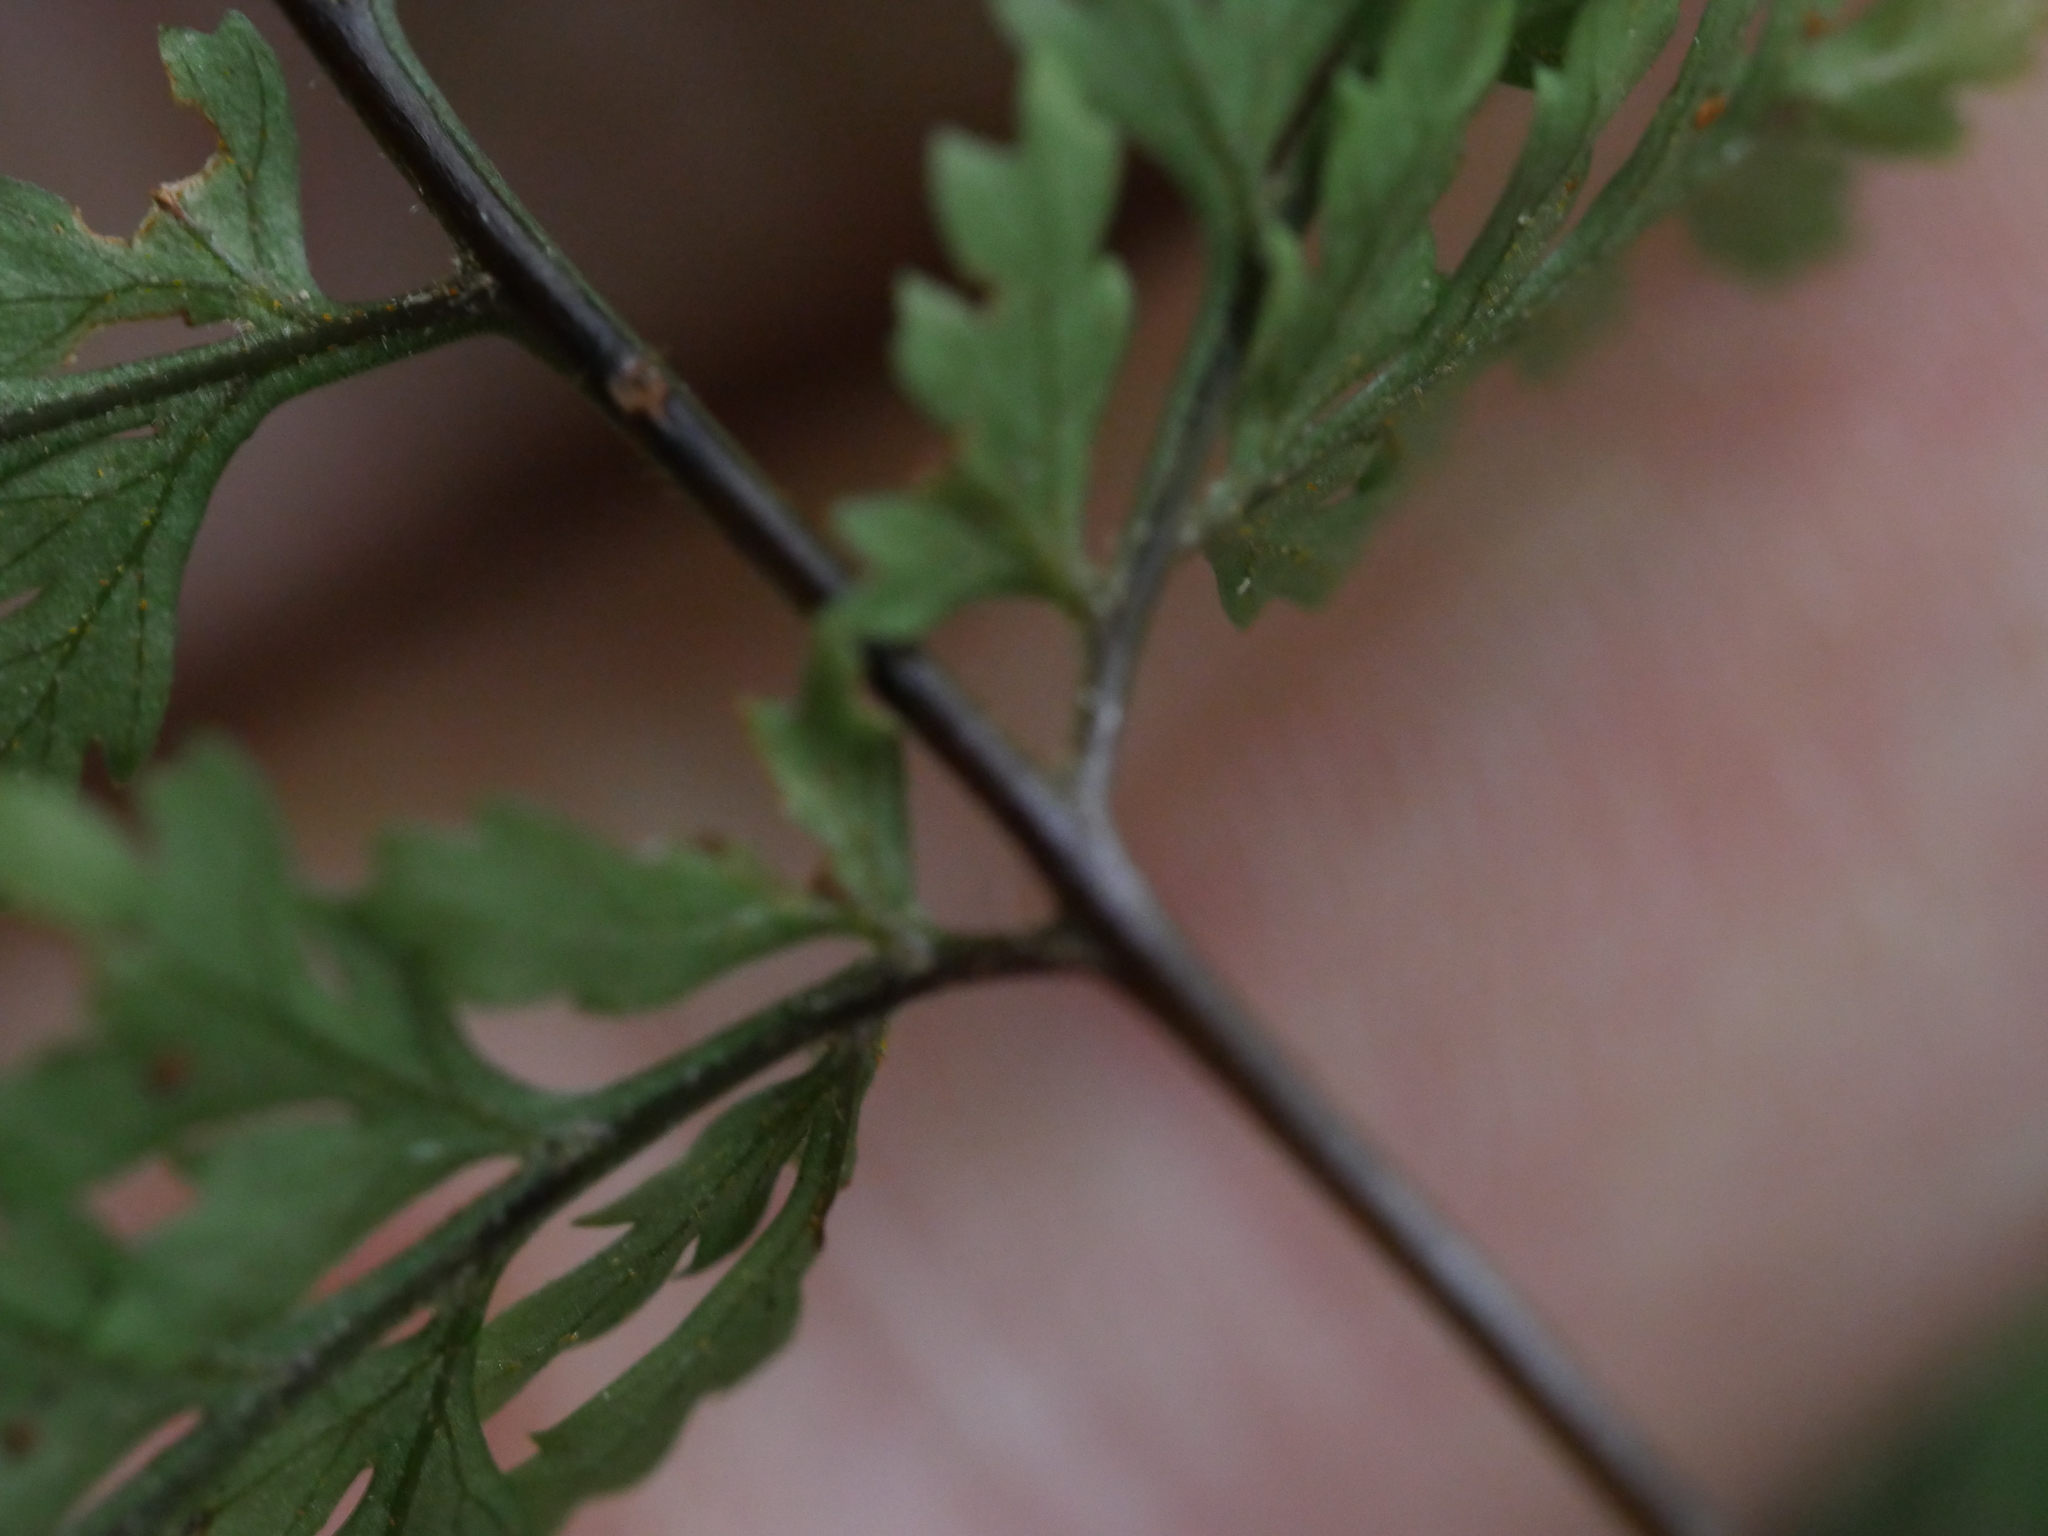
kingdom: Plantae
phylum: Tracheophyta
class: Polypodiopsida
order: Polypodiales
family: Dryopteridaceae
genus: Parapolystichum
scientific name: Parapolystichum glabellum
